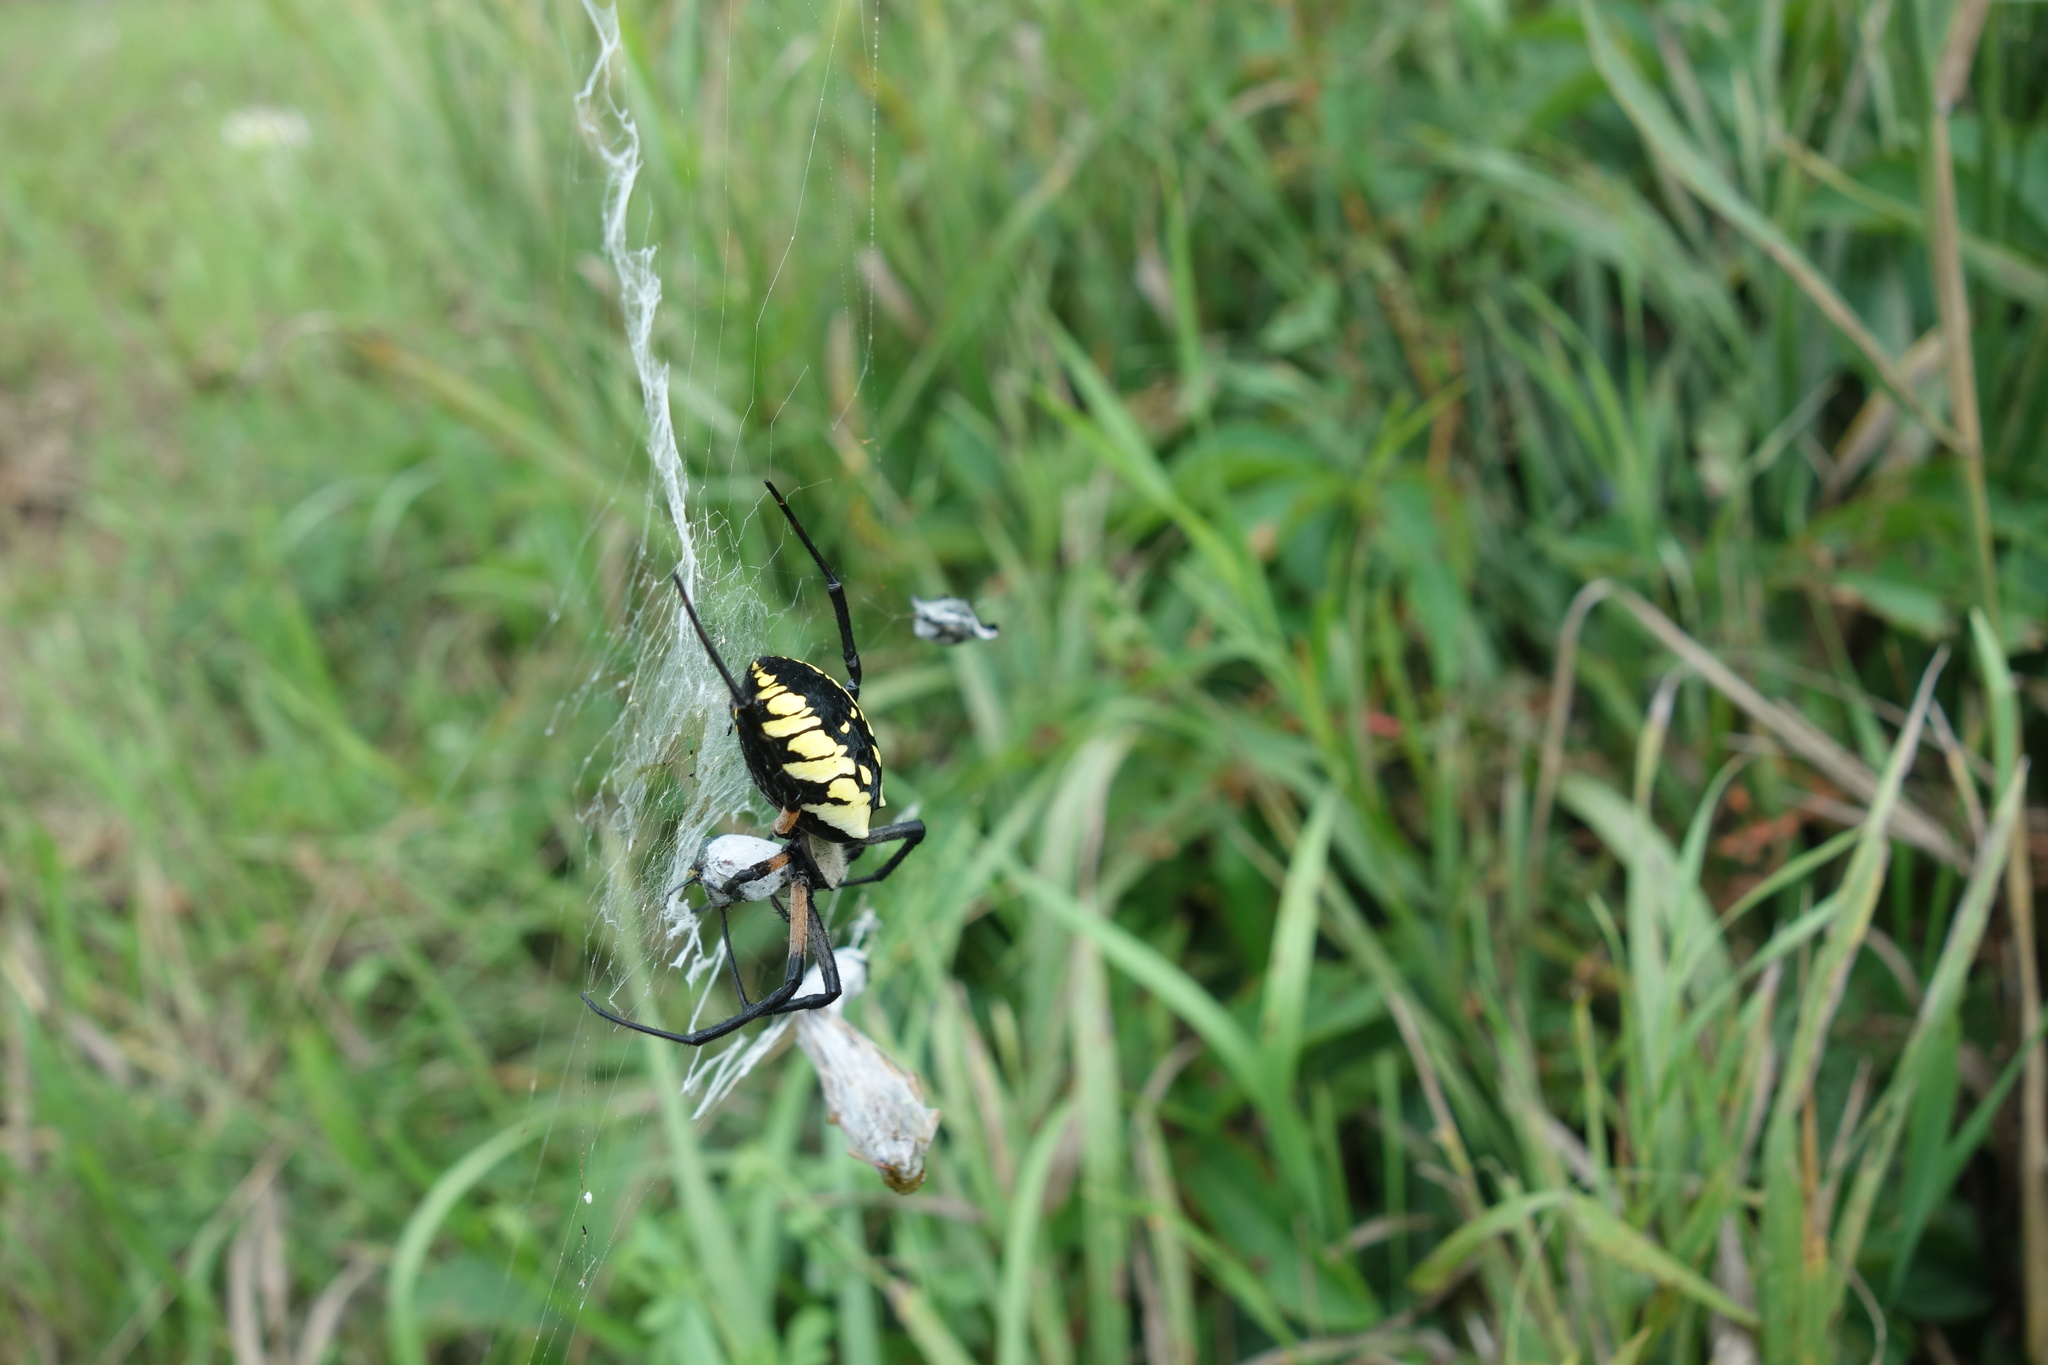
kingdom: Animalia
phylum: Arthropoda
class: Arachnida
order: Araneae
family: Araneidae
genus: Argiope
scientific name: Argiope aurantia
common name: Orb weavers
